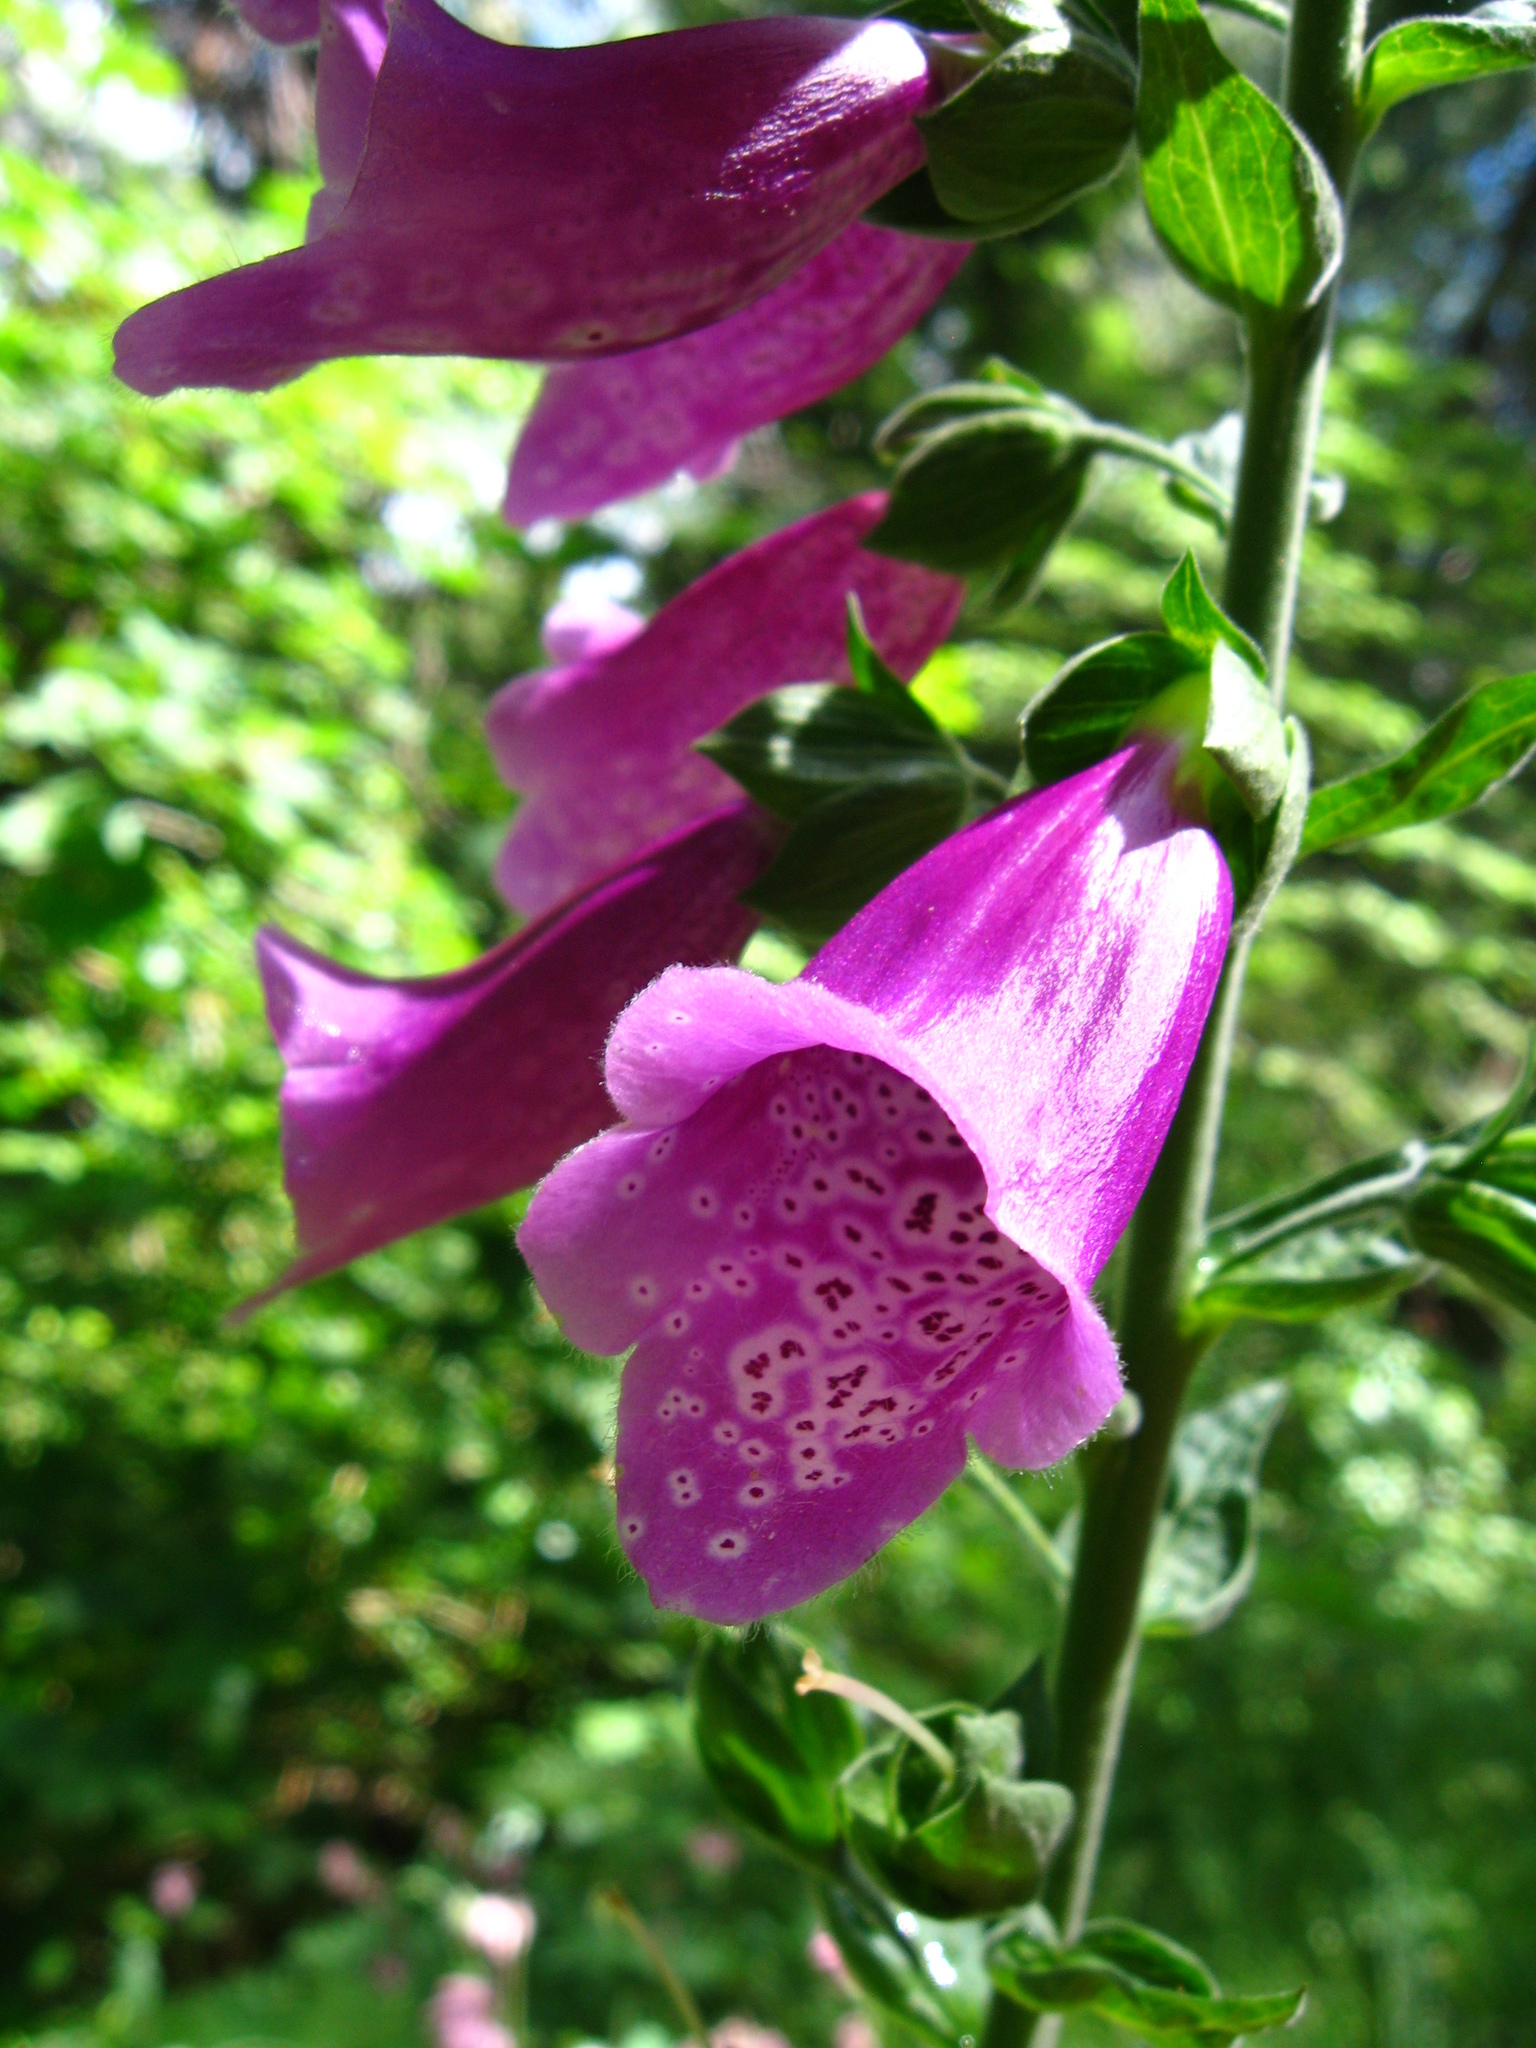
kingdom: Plantae
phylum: Tracheophyta
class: Magnoliopsida
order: Lamiales
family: Plantaginaceae
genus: Digitalis
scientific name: Digitalis purpurea
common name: Foxglove
